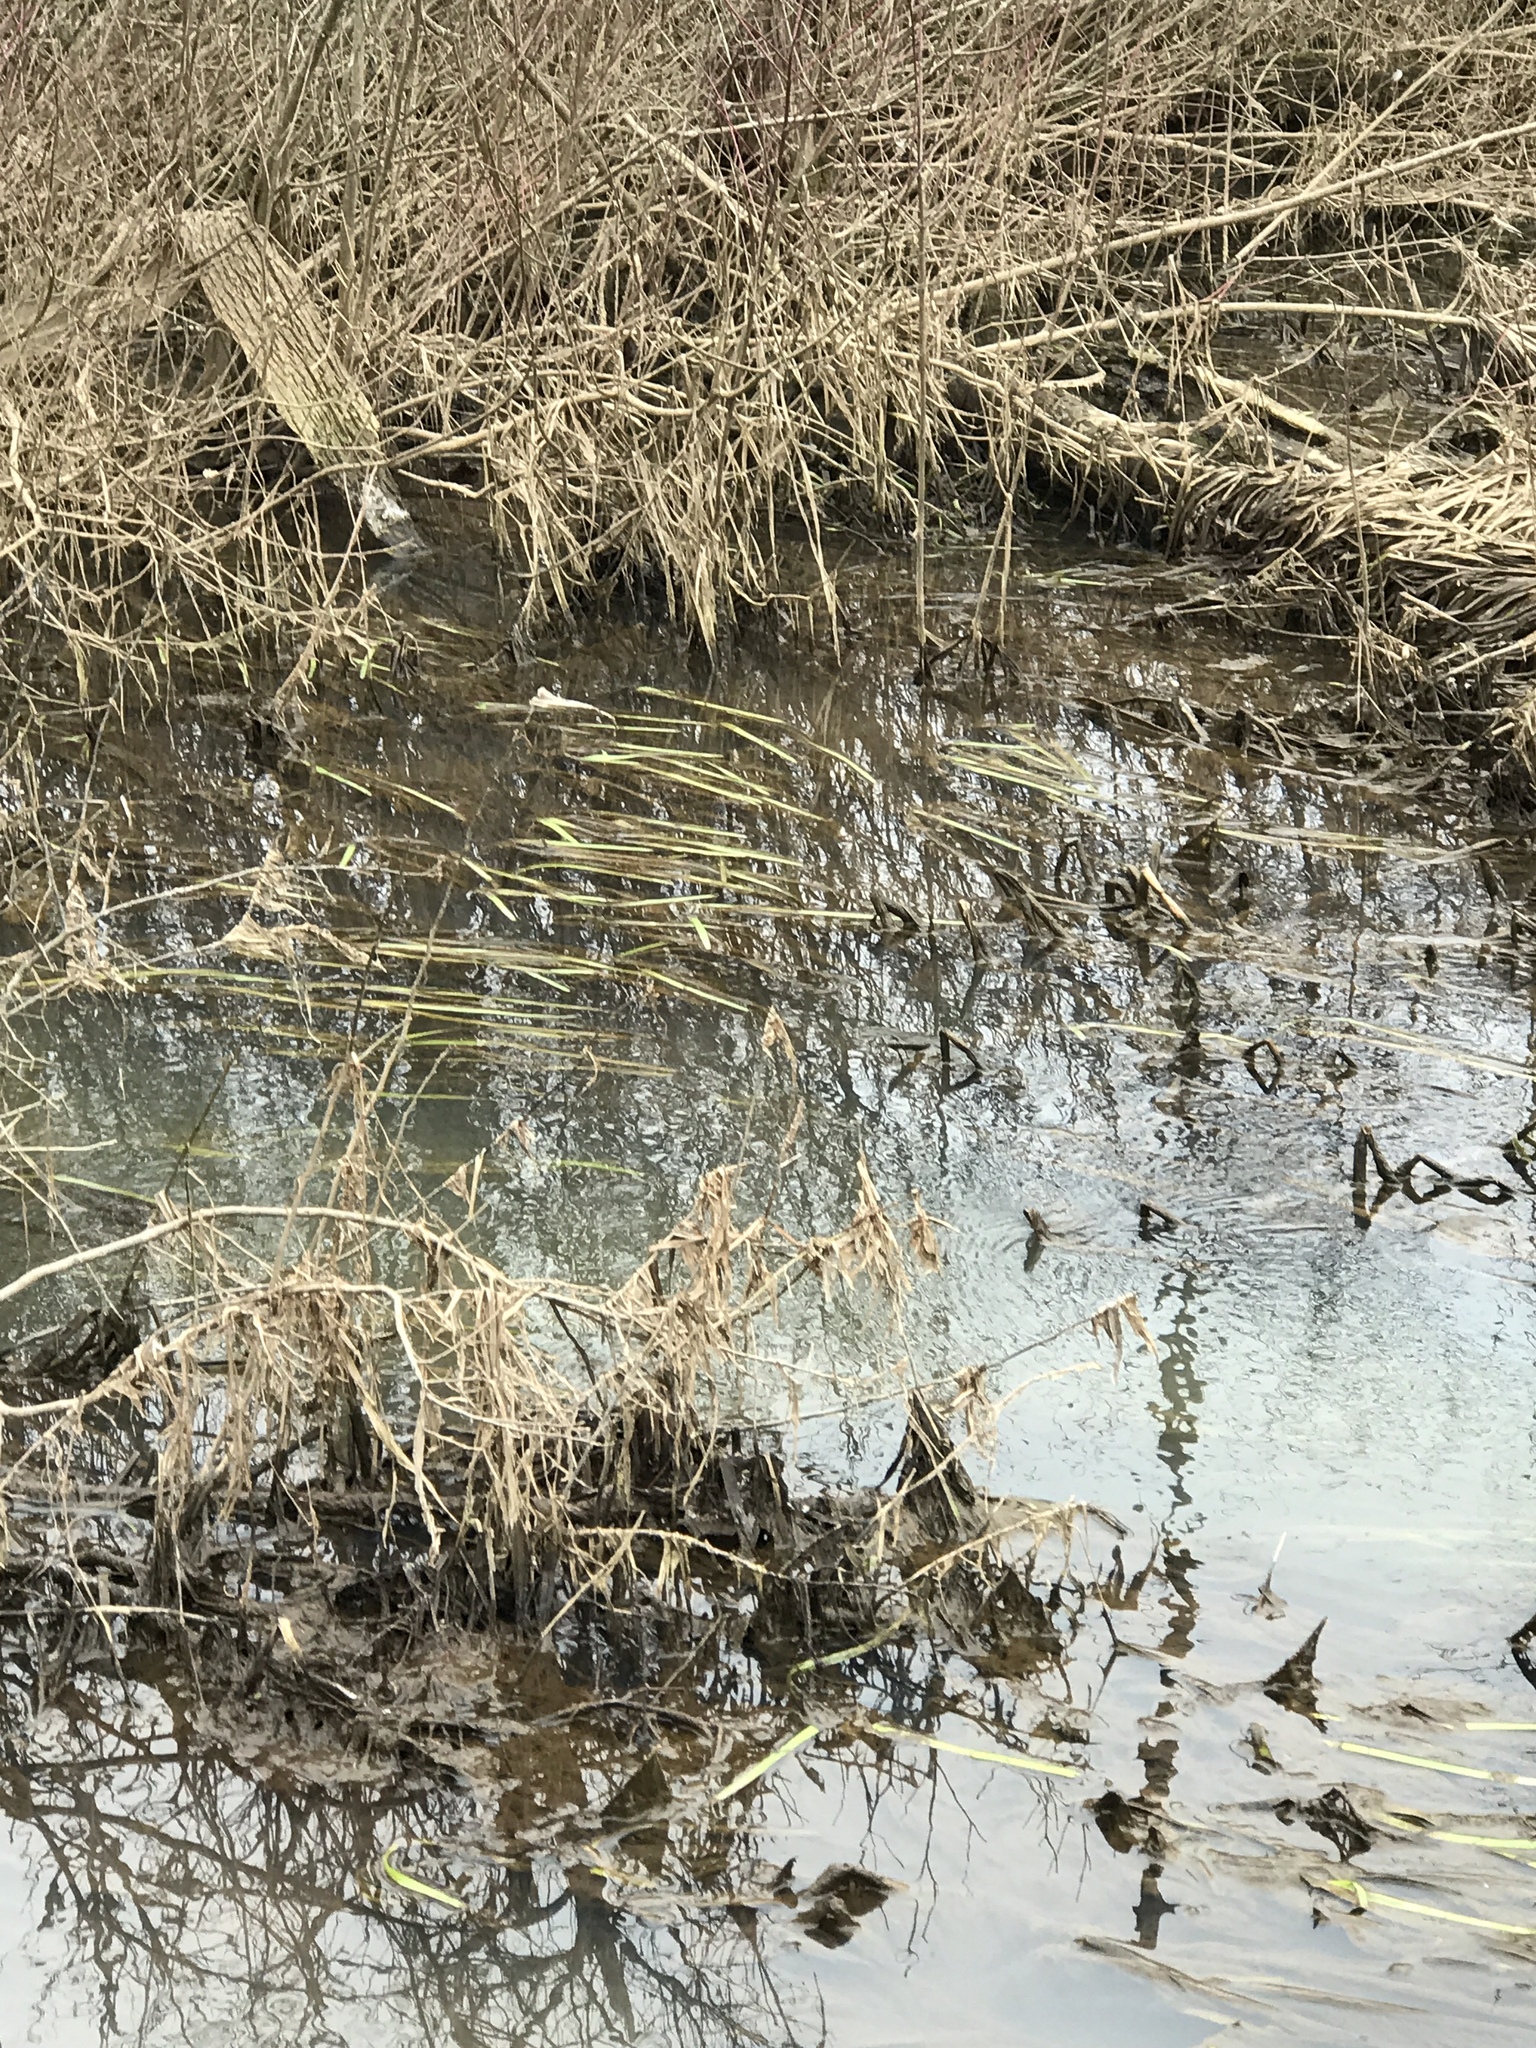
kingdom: Plantae
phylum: Tracheophyta
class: Liliopsida
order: Poales
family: Typhaceae
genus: Sparganium
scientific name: Sparganium americanum
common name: American burreed
